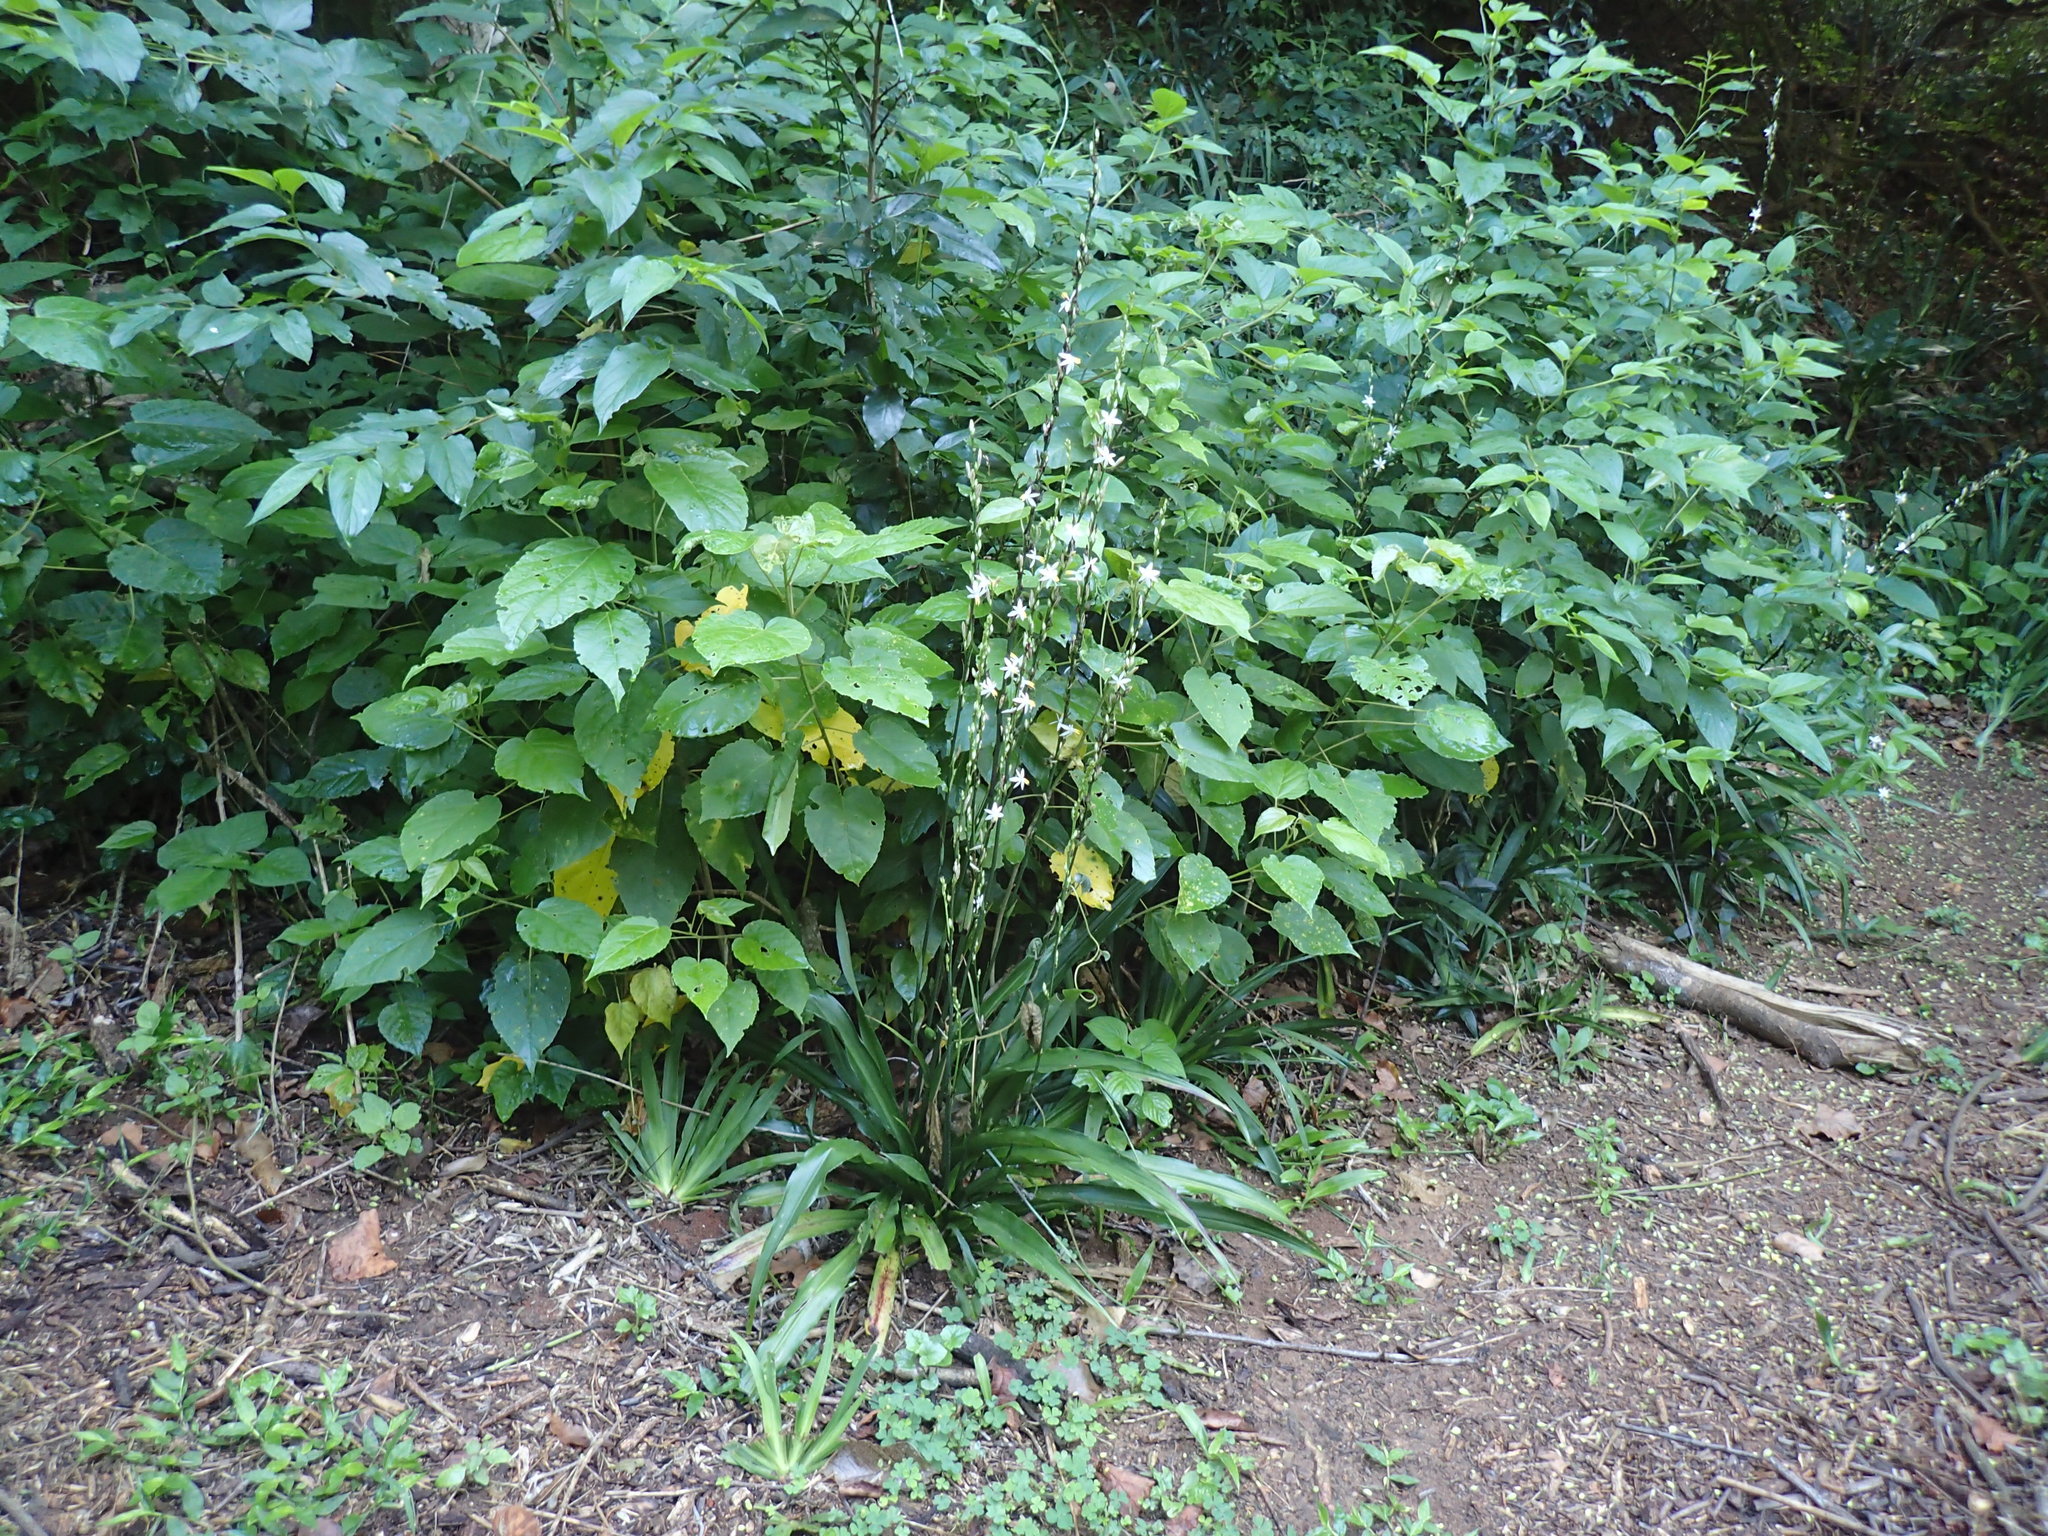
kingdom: Plantae
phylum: Tracheophyta
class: Liliopsida
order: Asparagales
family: Asparagaceae
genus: Chlorophytum
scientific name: Chlorophytum bowkeri
